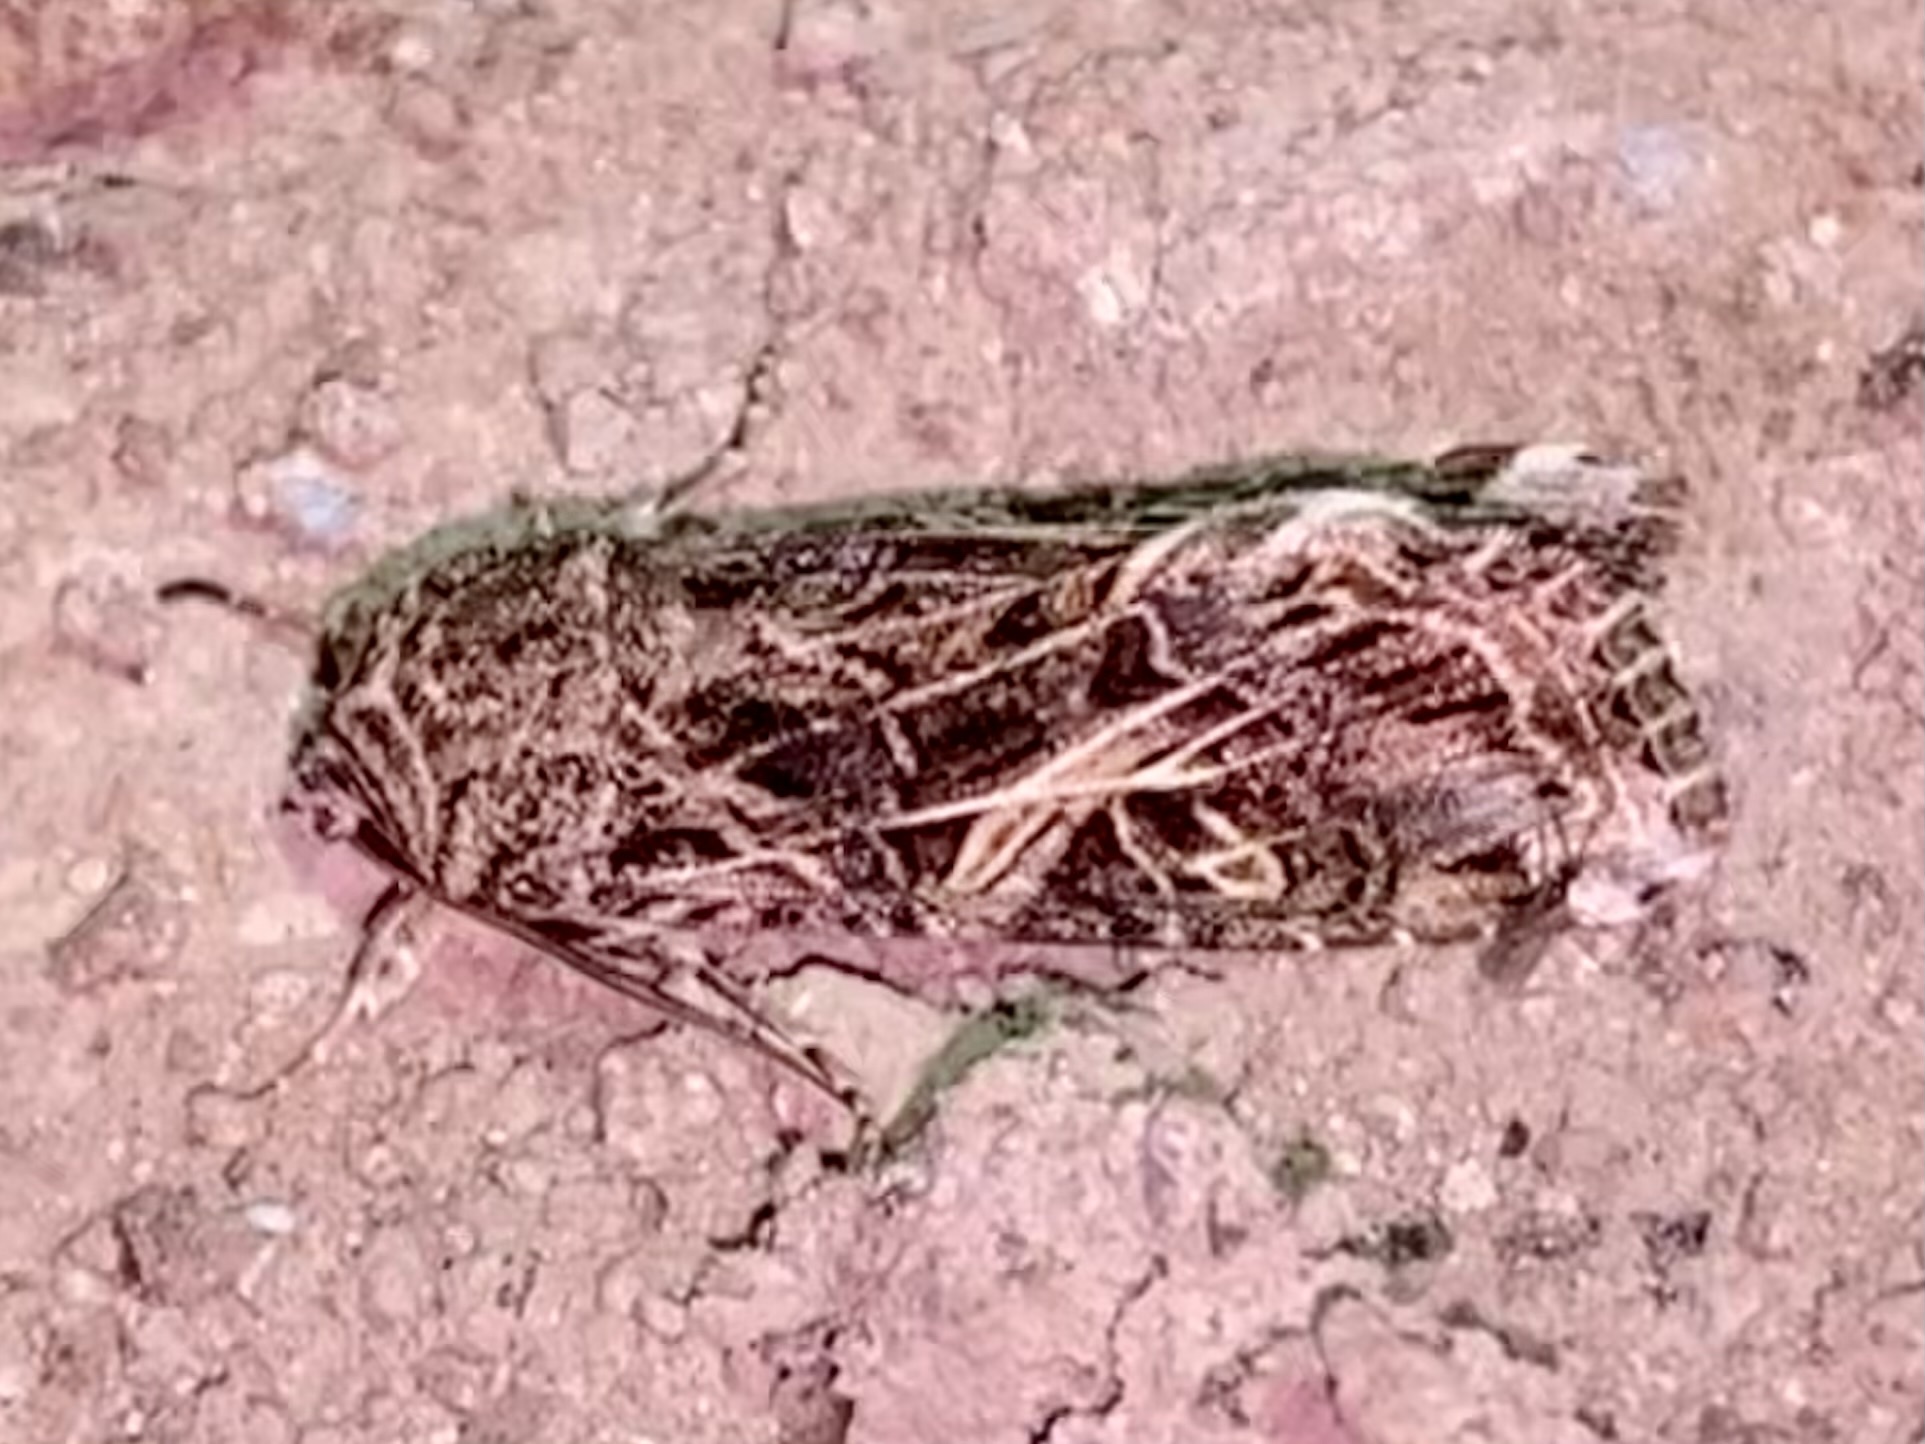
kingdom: Animalia
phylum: Arthropoda
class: Insecta
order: Lepidoptera
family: Noctuidae
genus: Spodoptera
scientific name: Spodoptera ornithogalli
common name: Yellow-striped armyworm
